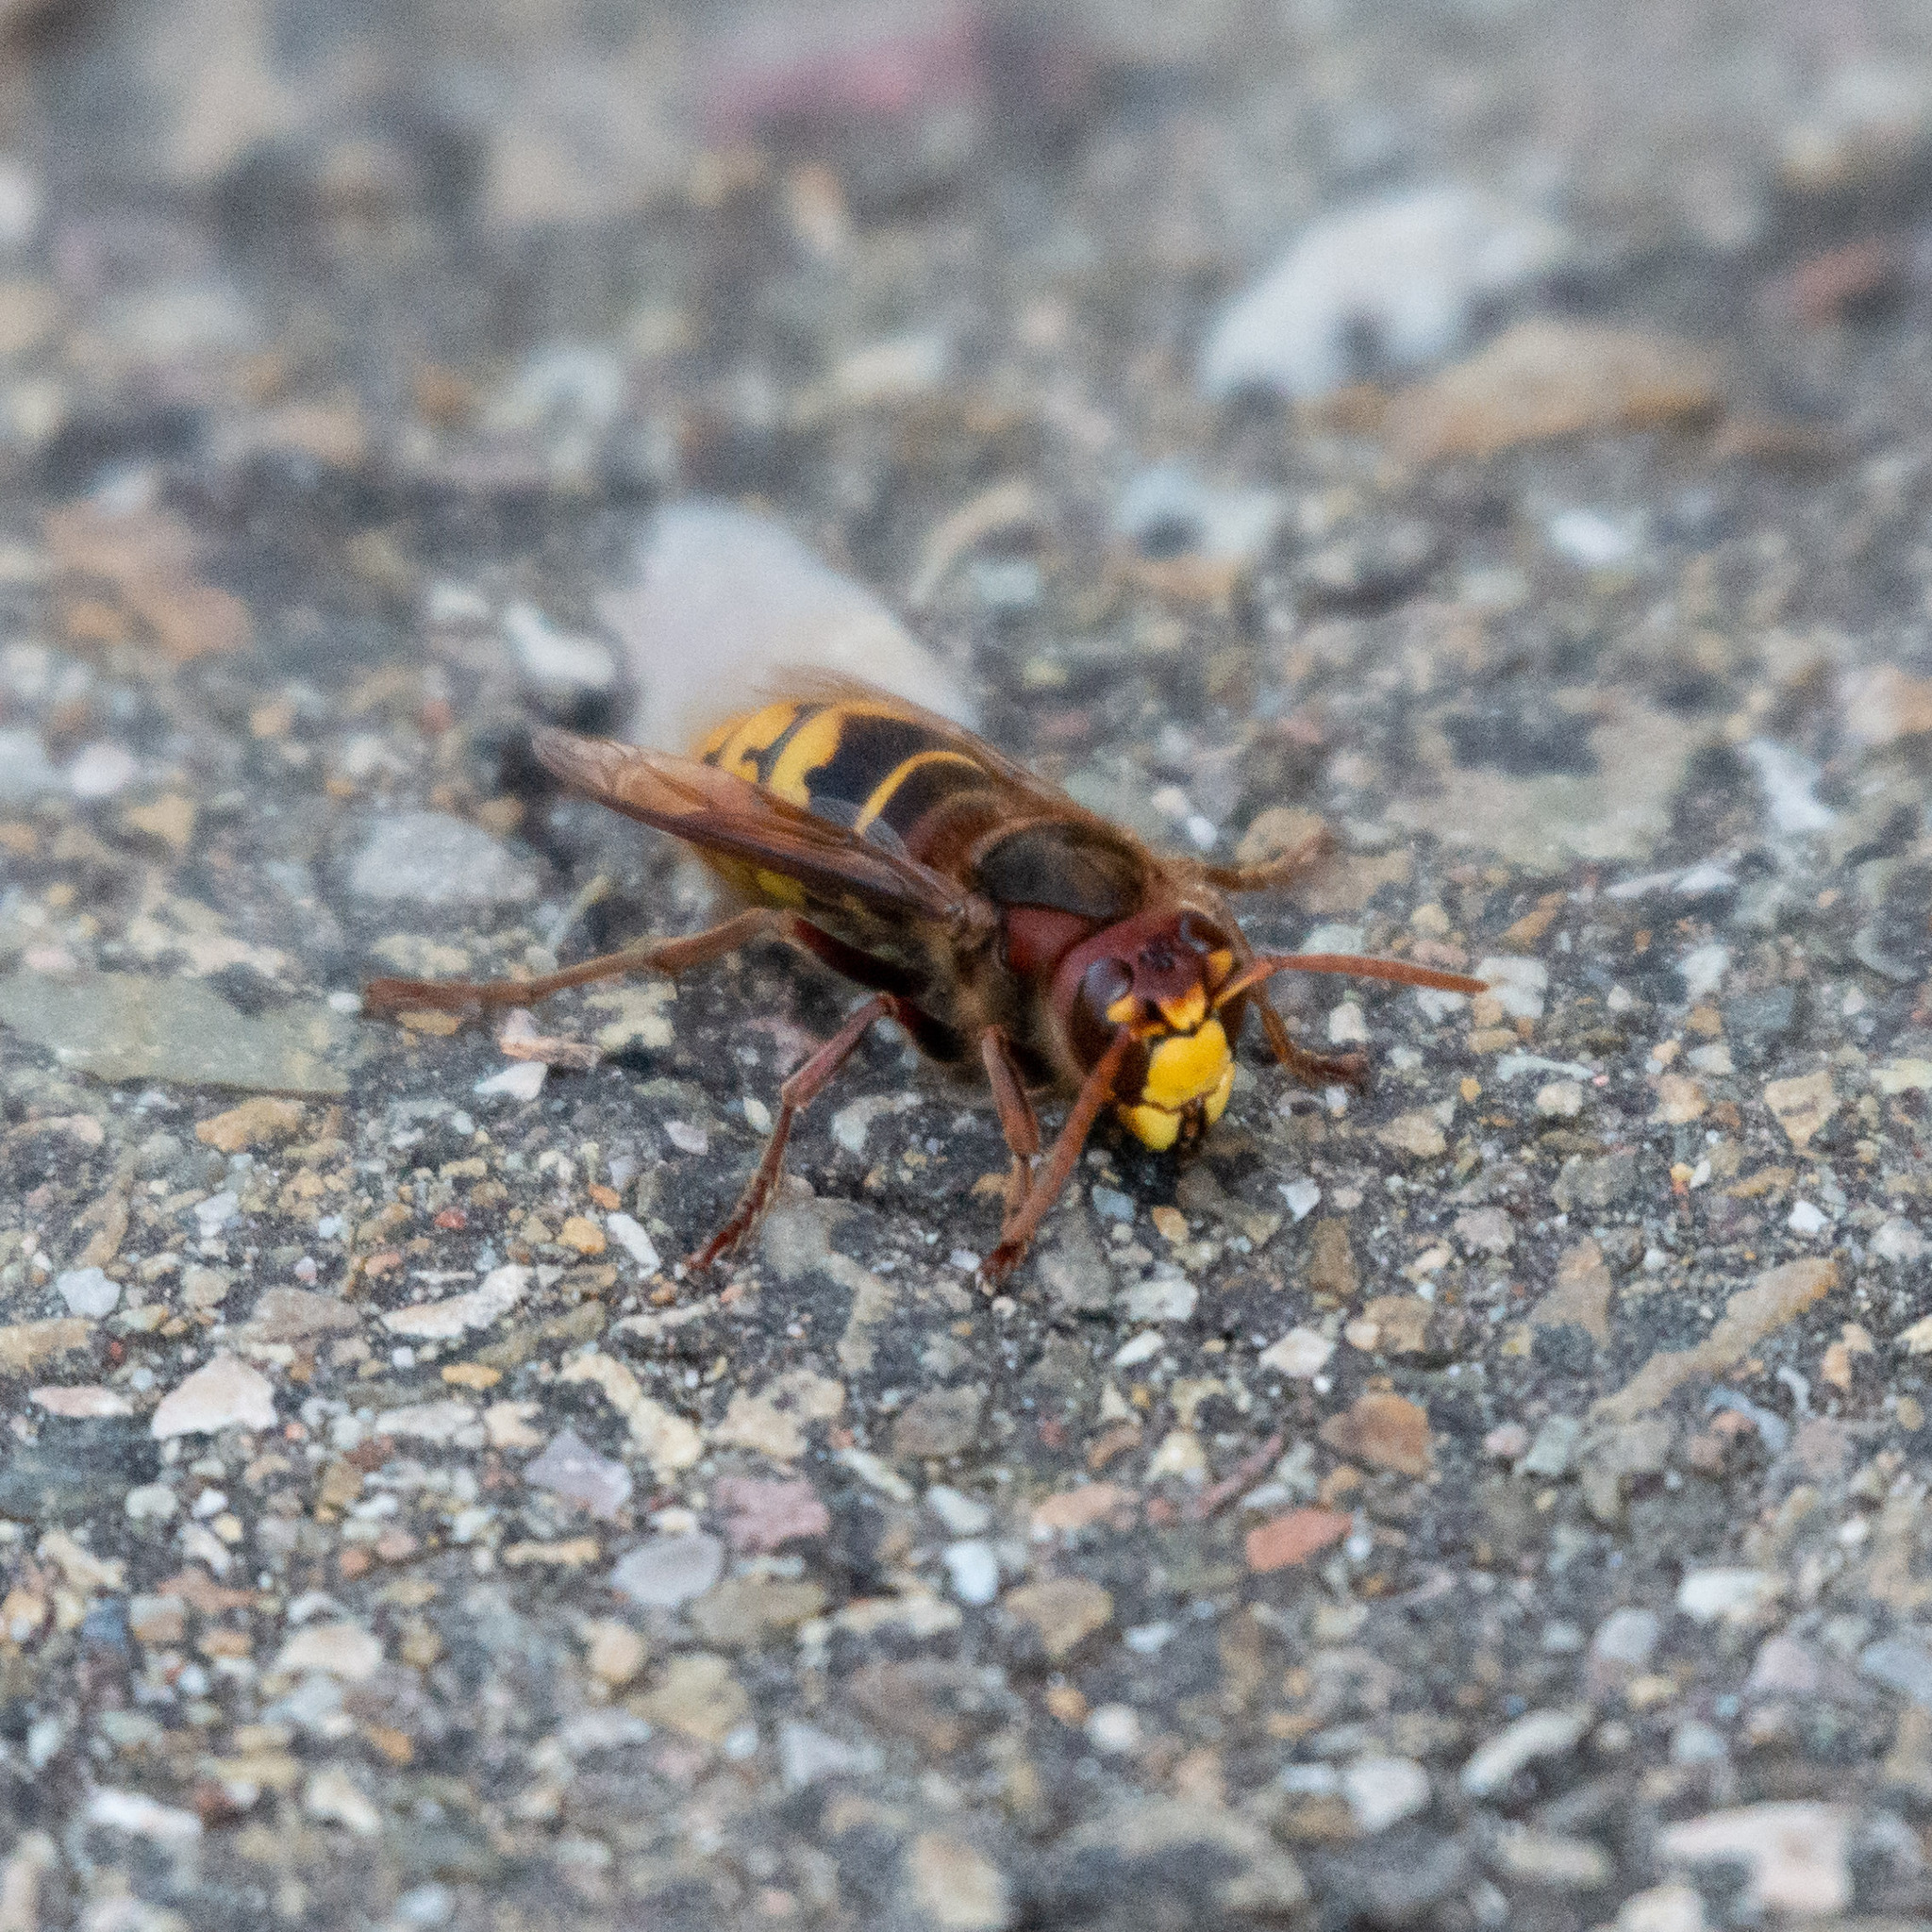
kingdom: Animalia
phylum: Arthropoda
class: Insecta
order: Hymenoptera
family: Vespidae
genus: Vespa
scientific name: Vespa crabro
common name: Hornet
